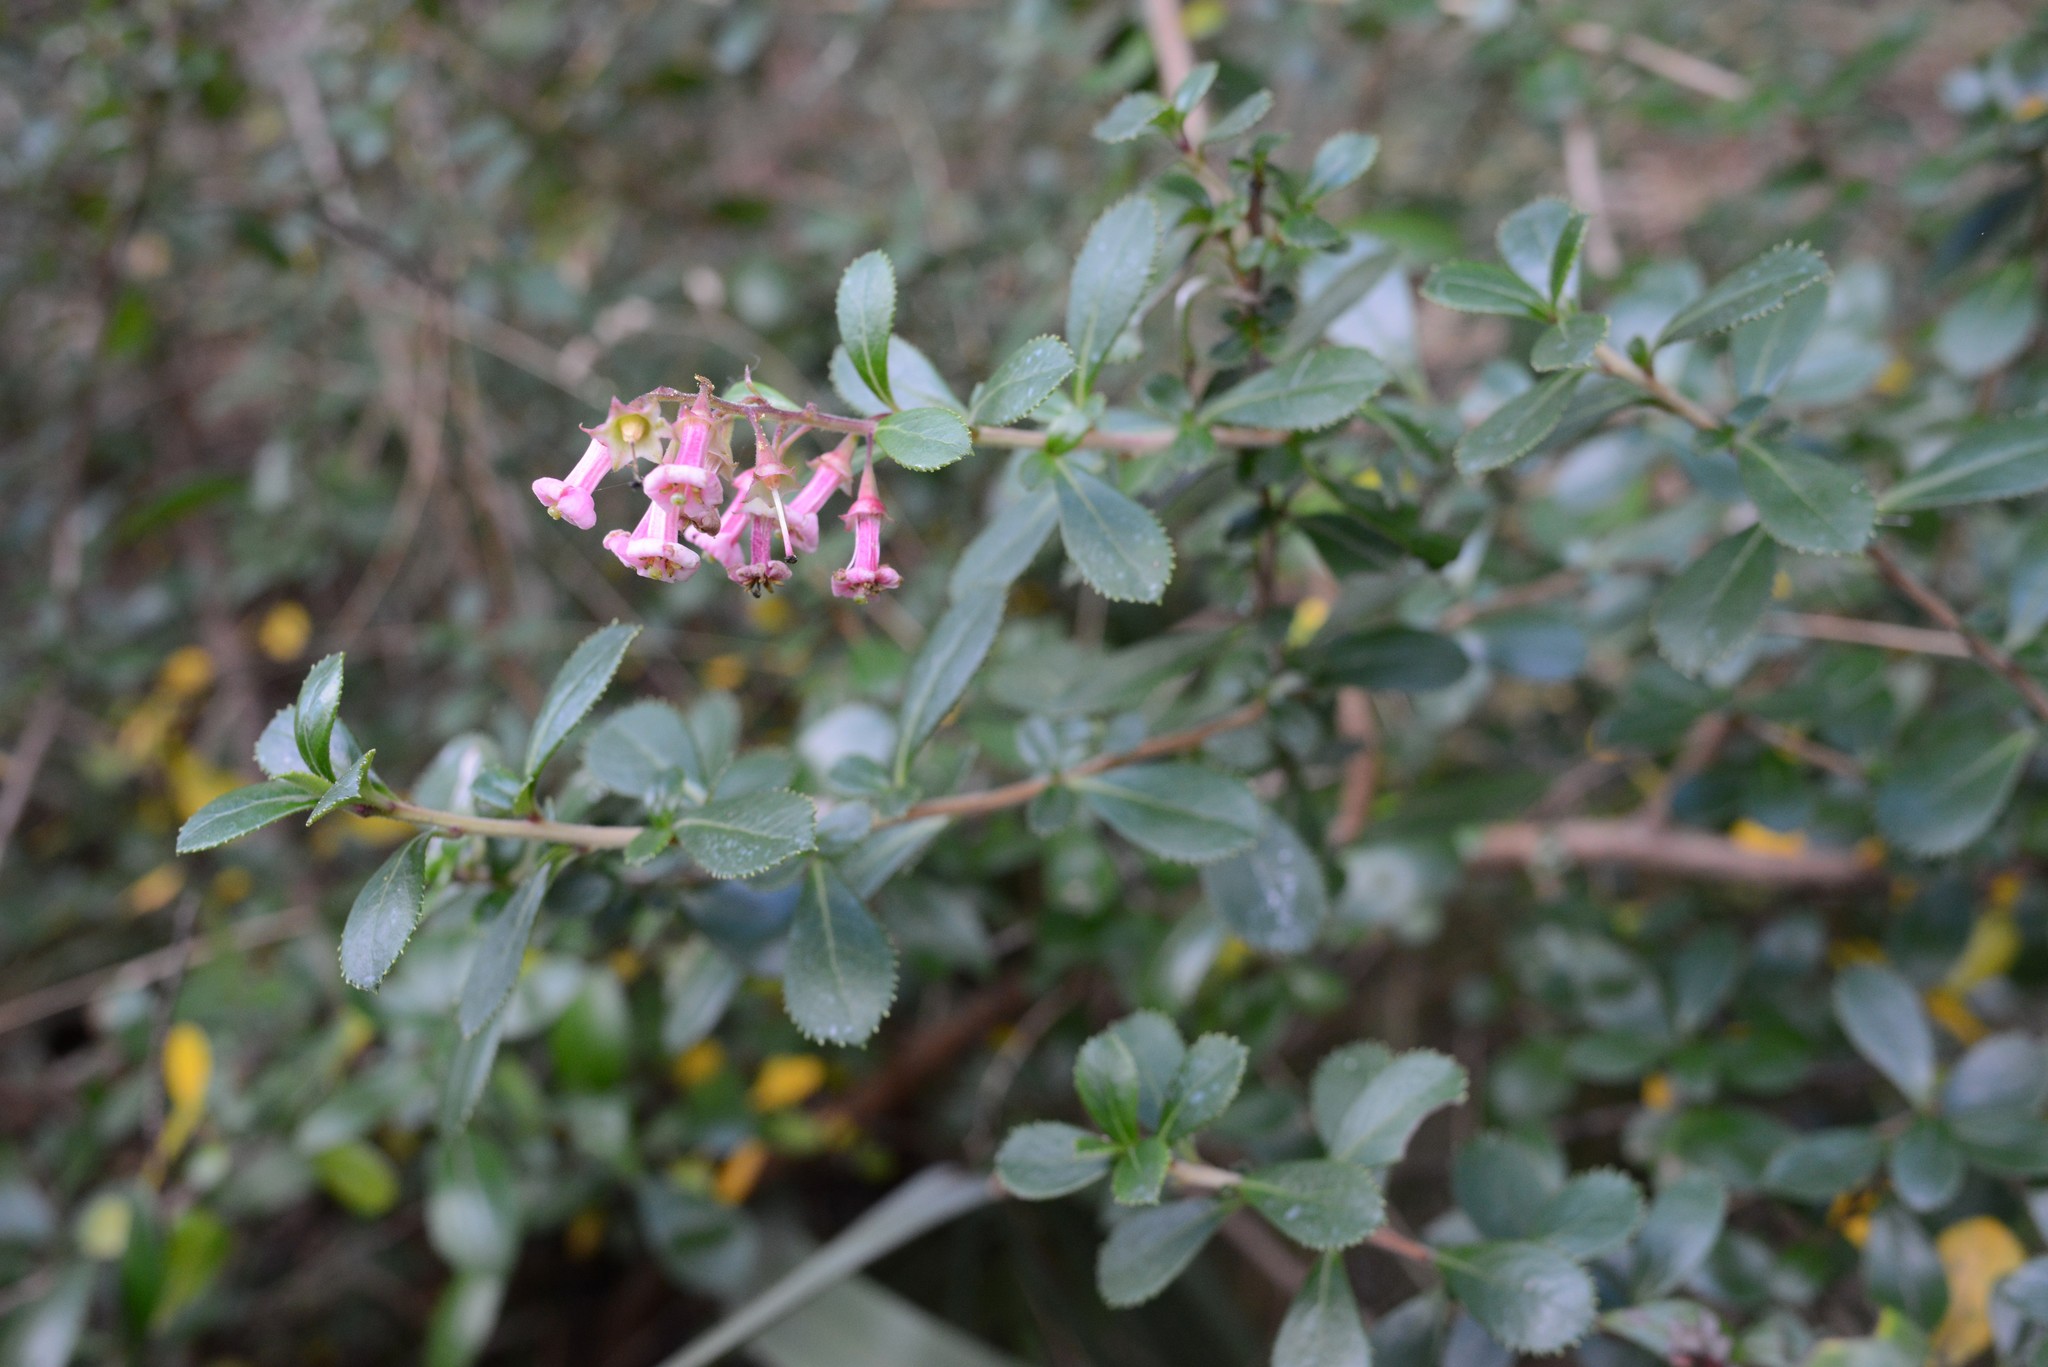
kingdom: Plantae
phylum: Tracheophyta
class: Magnoliopsida
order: Escalloniales
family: Escalloniaceae
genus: Escallonia
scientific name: Escallonia rubra
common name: Redclaws
